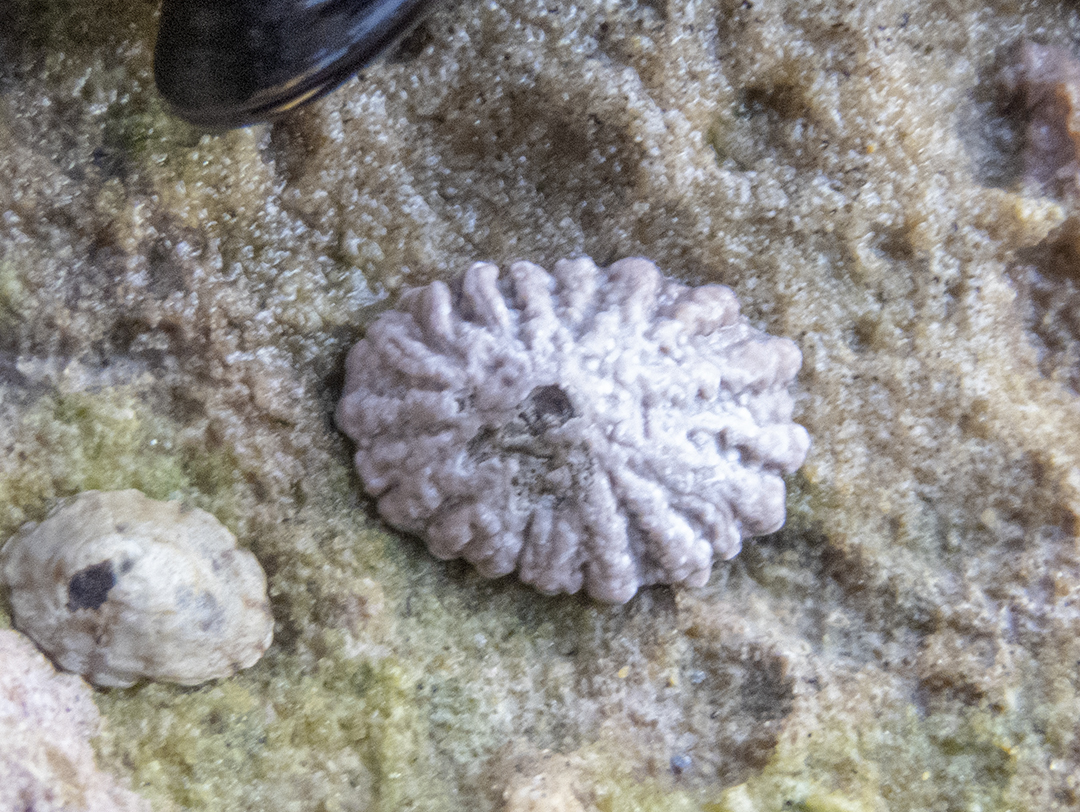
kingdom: Animalia
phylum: Mollusca
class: Gastropoda
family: Lottiidae
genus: Patelloida
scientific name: Patelloida corticata
